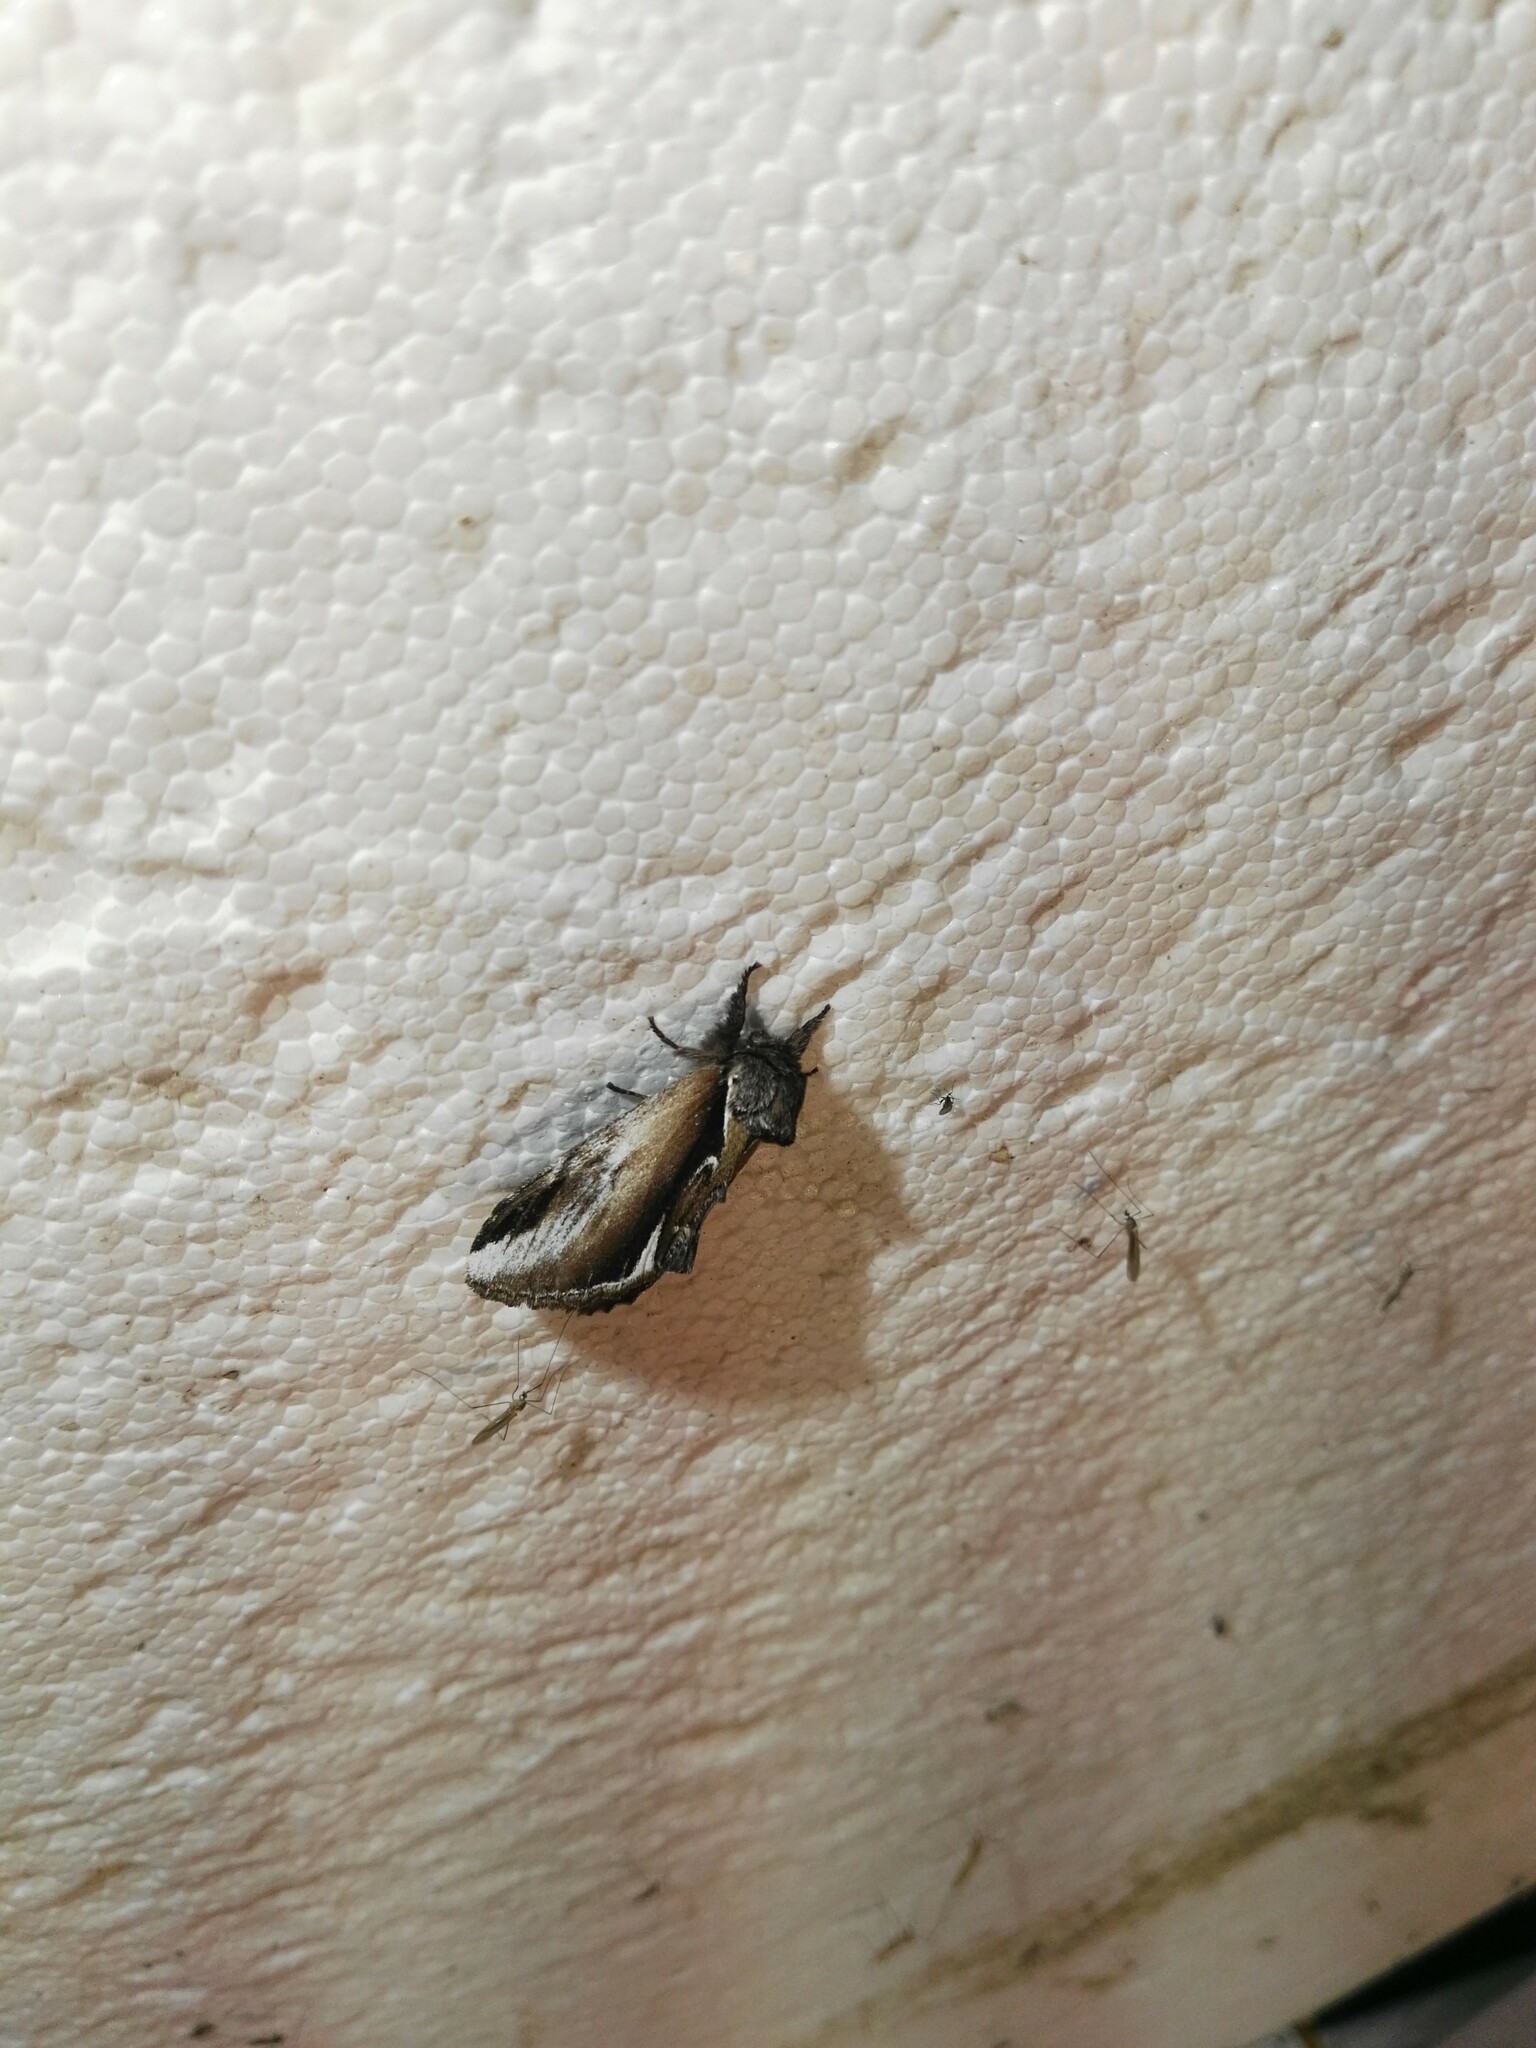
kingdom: Animalia
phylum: Arthropoda
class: Insecta
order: Lepidoptera
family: Notodontidae
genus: Pheosia
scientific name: Pheosia gnoma
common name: Lesser swallow prominent
